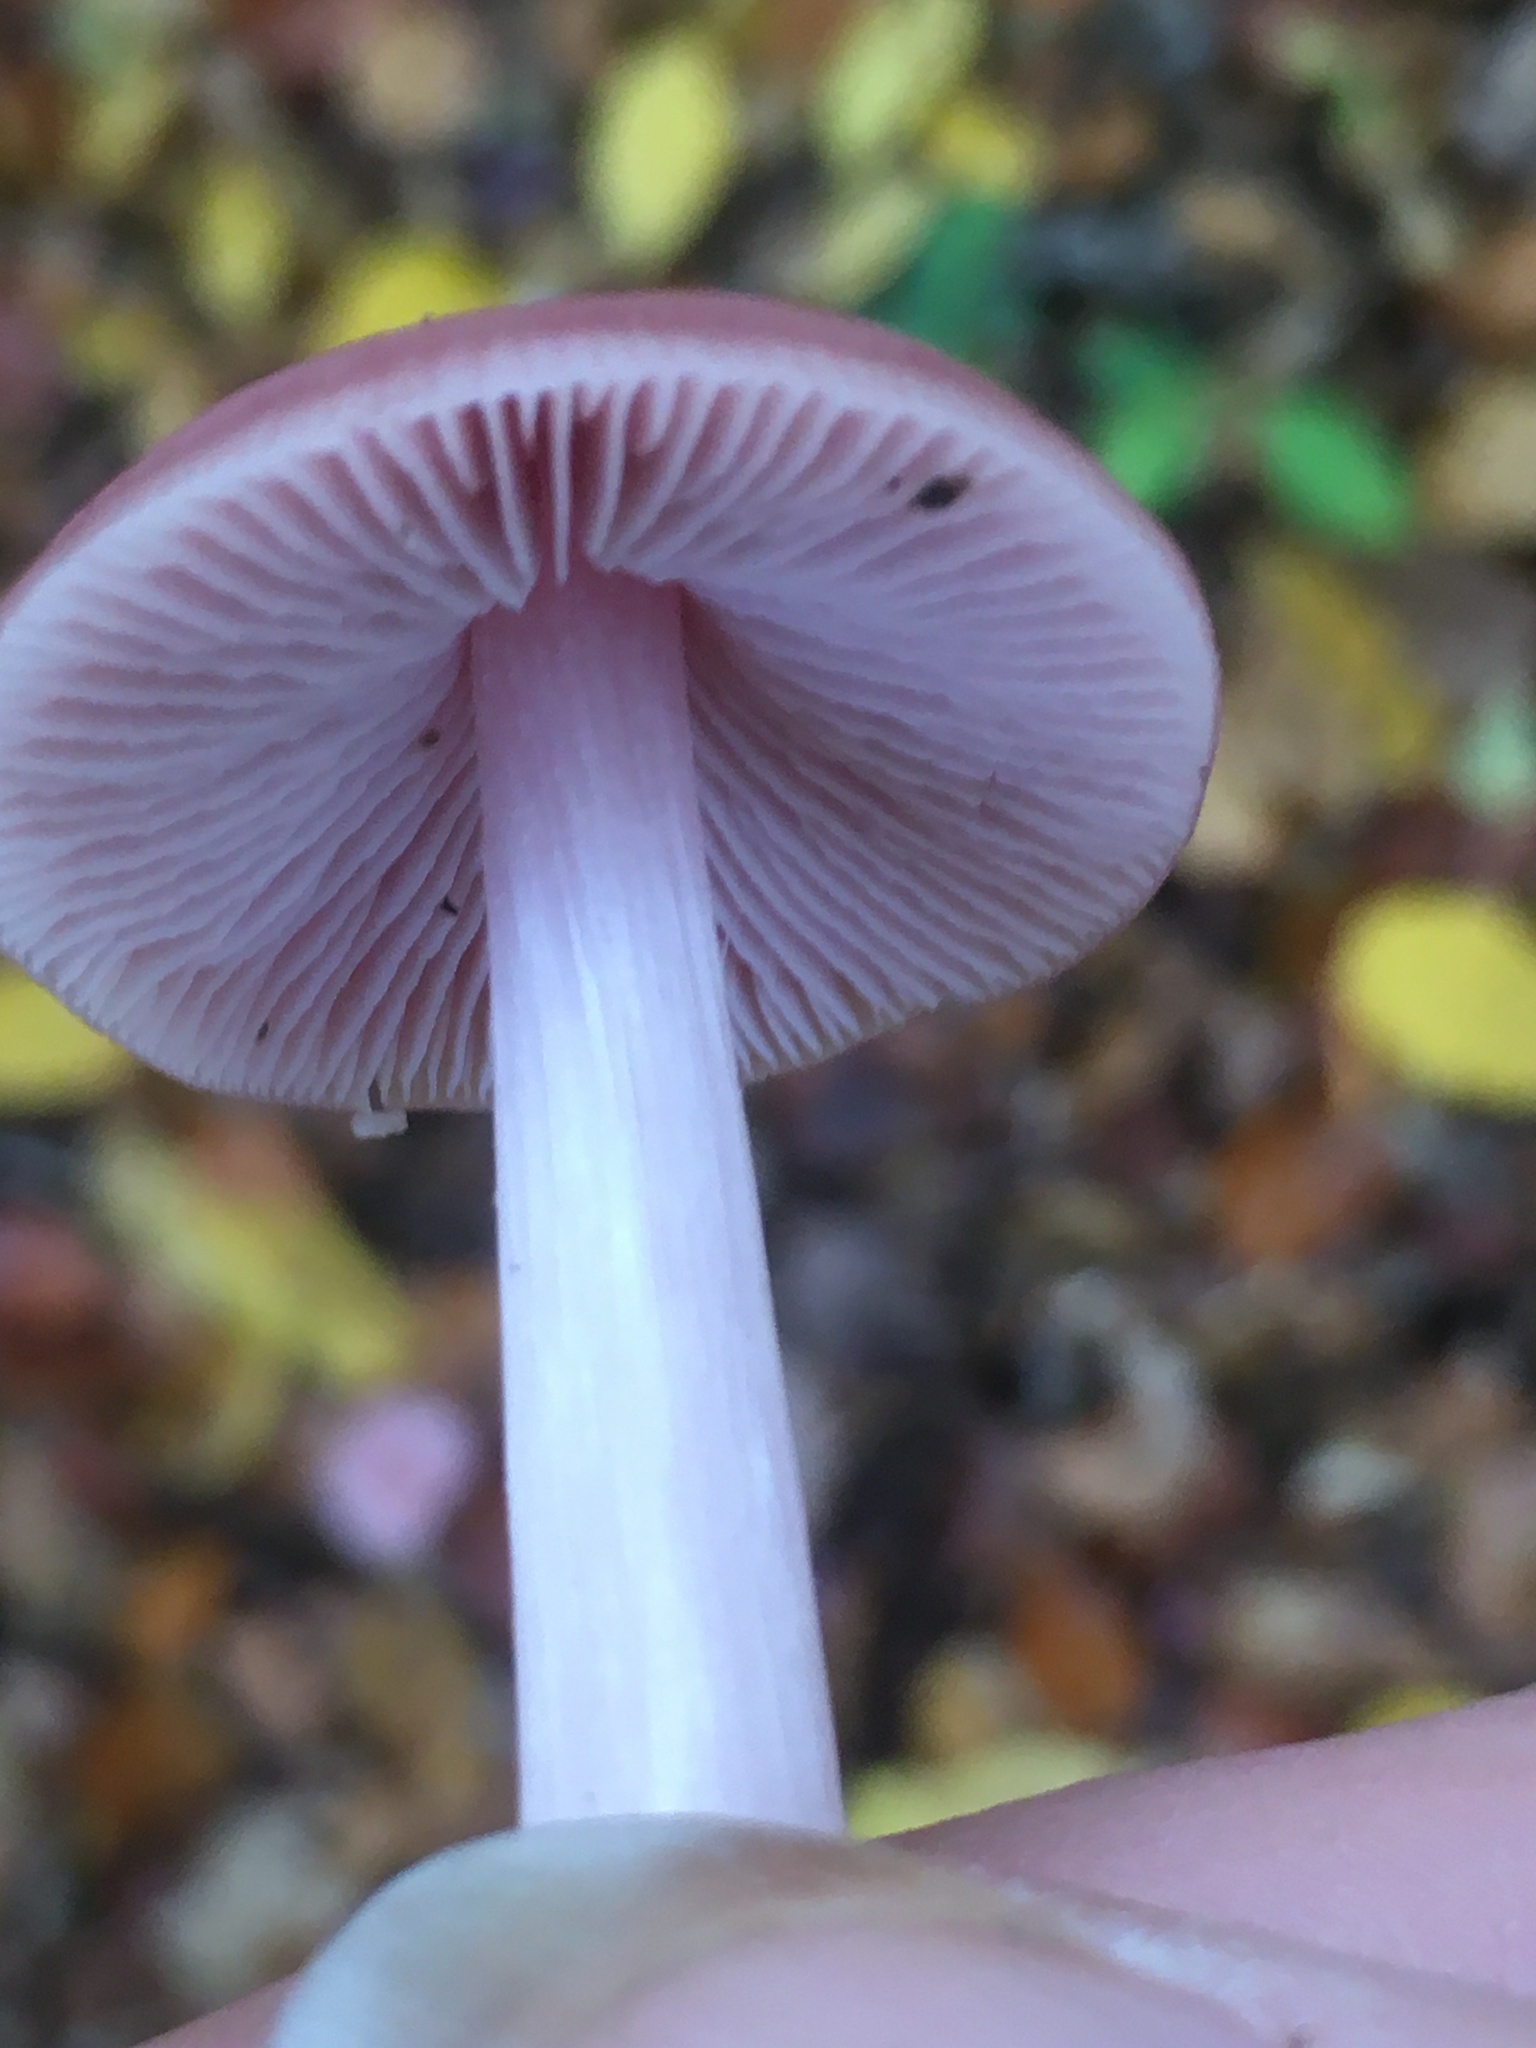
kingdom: Fungi
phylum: Basidiomycota
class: Agaricomycetes
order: Agaricales
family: Mycenaceae
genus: Mycena
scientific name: Mycena rosea
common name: Rosy bonnet
